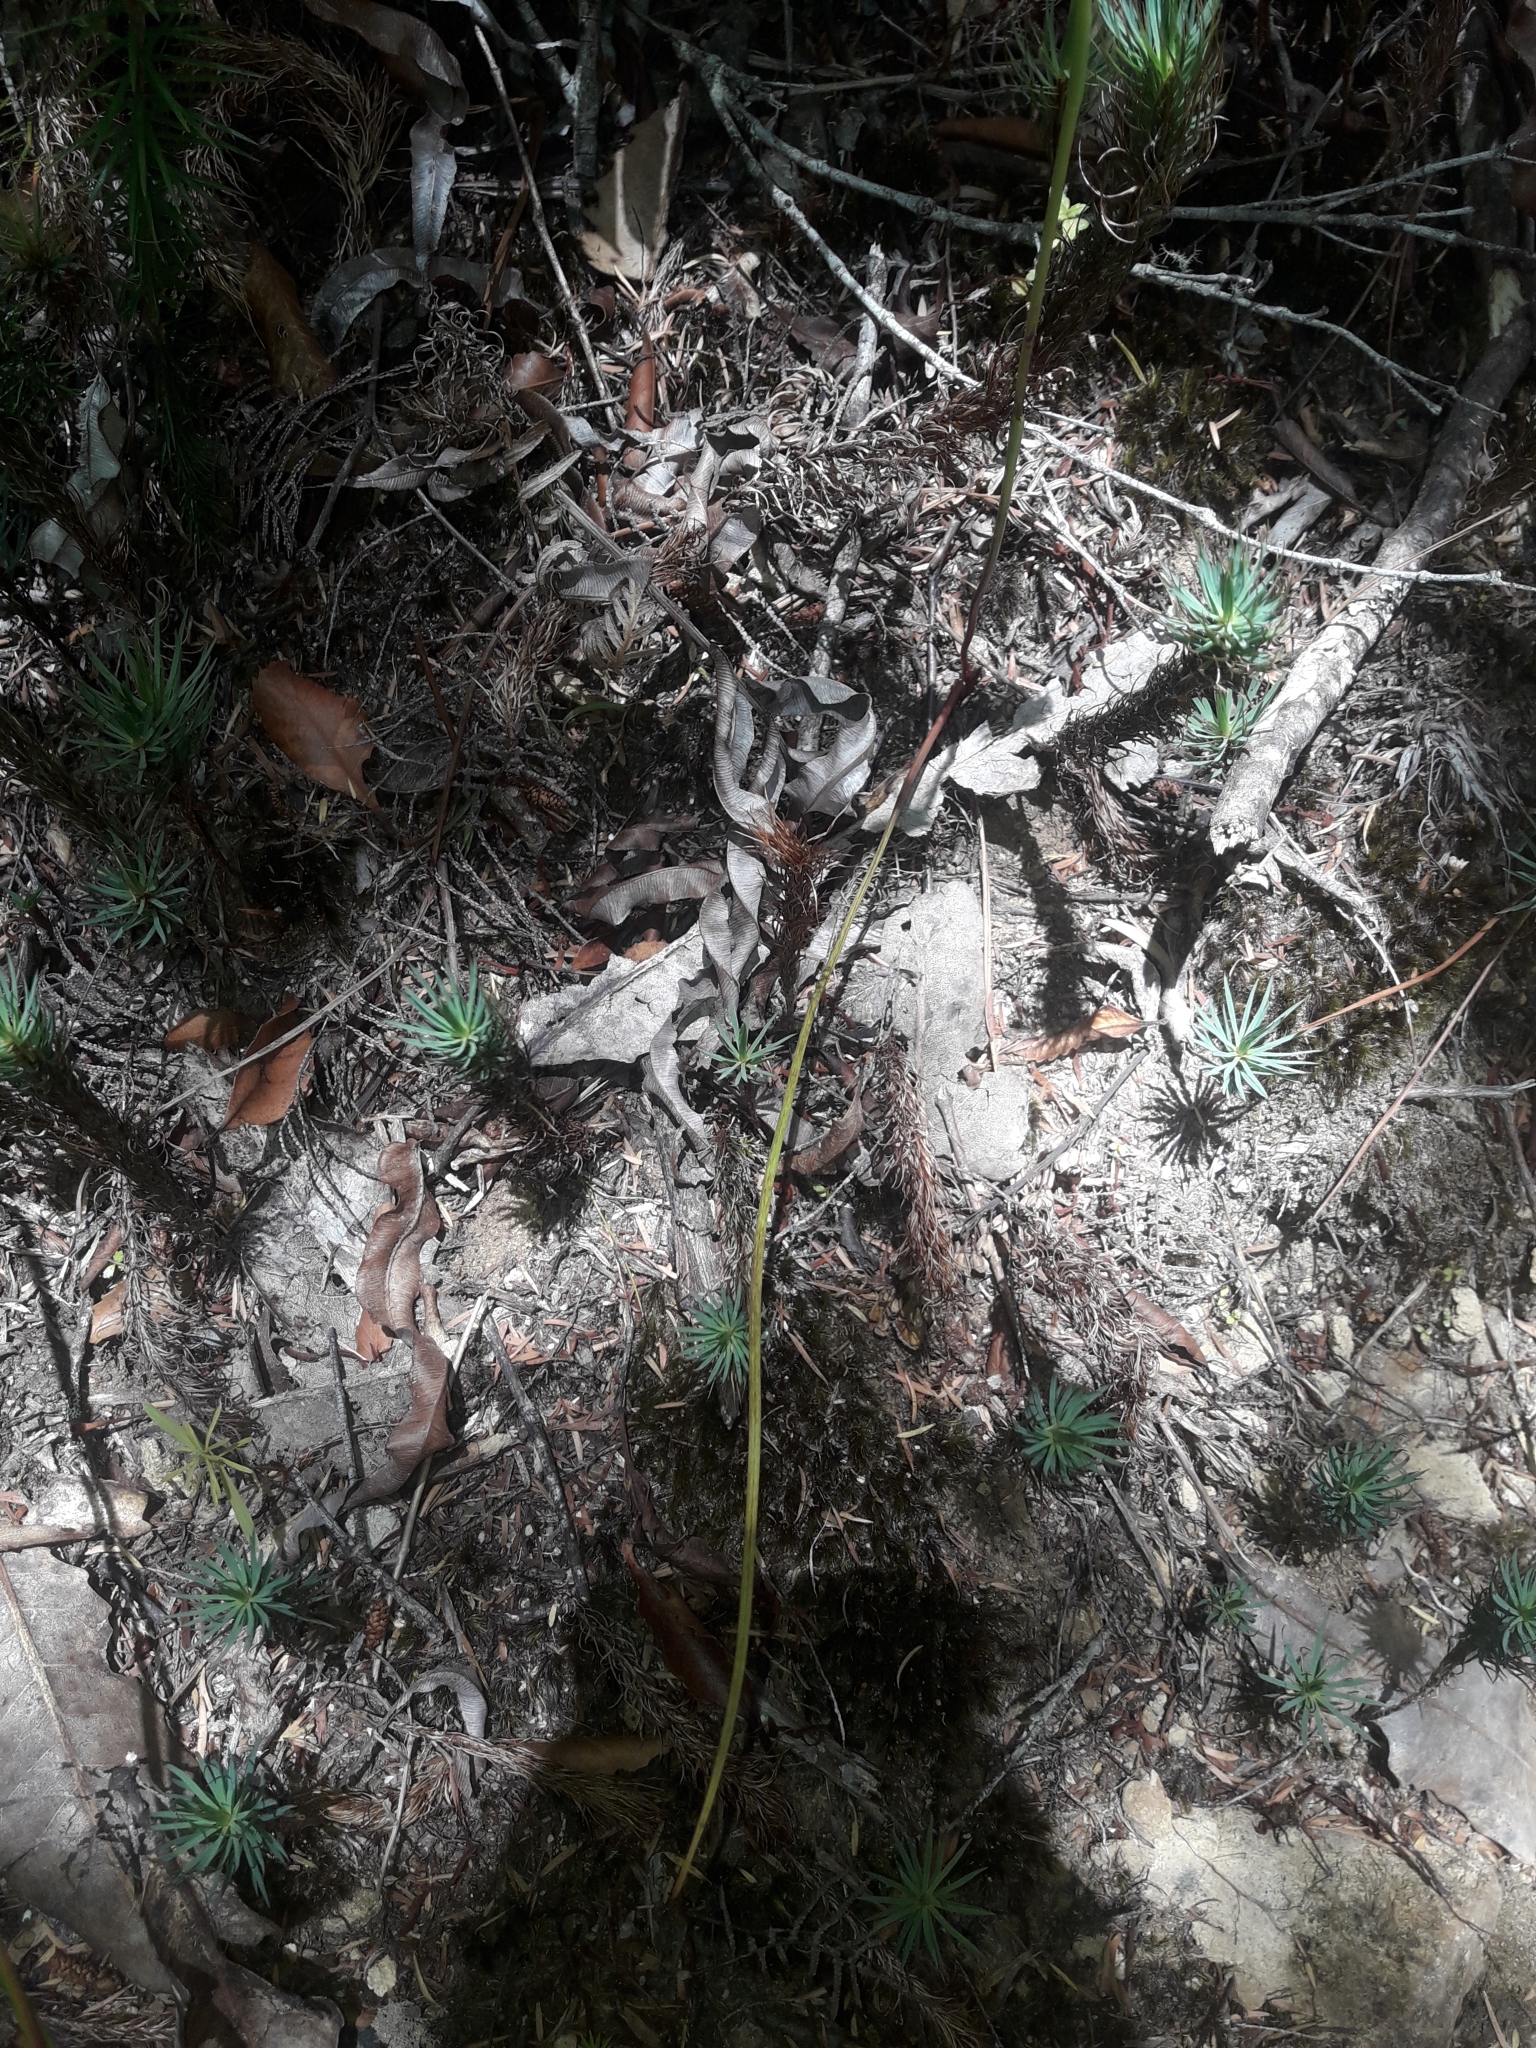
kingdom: Plantae
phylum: Tracheophyta
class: Liliopsida
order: Asparagales
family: Orchidaceae
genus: Orthoceras
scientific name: Orthoceras novae-zeelandiae
